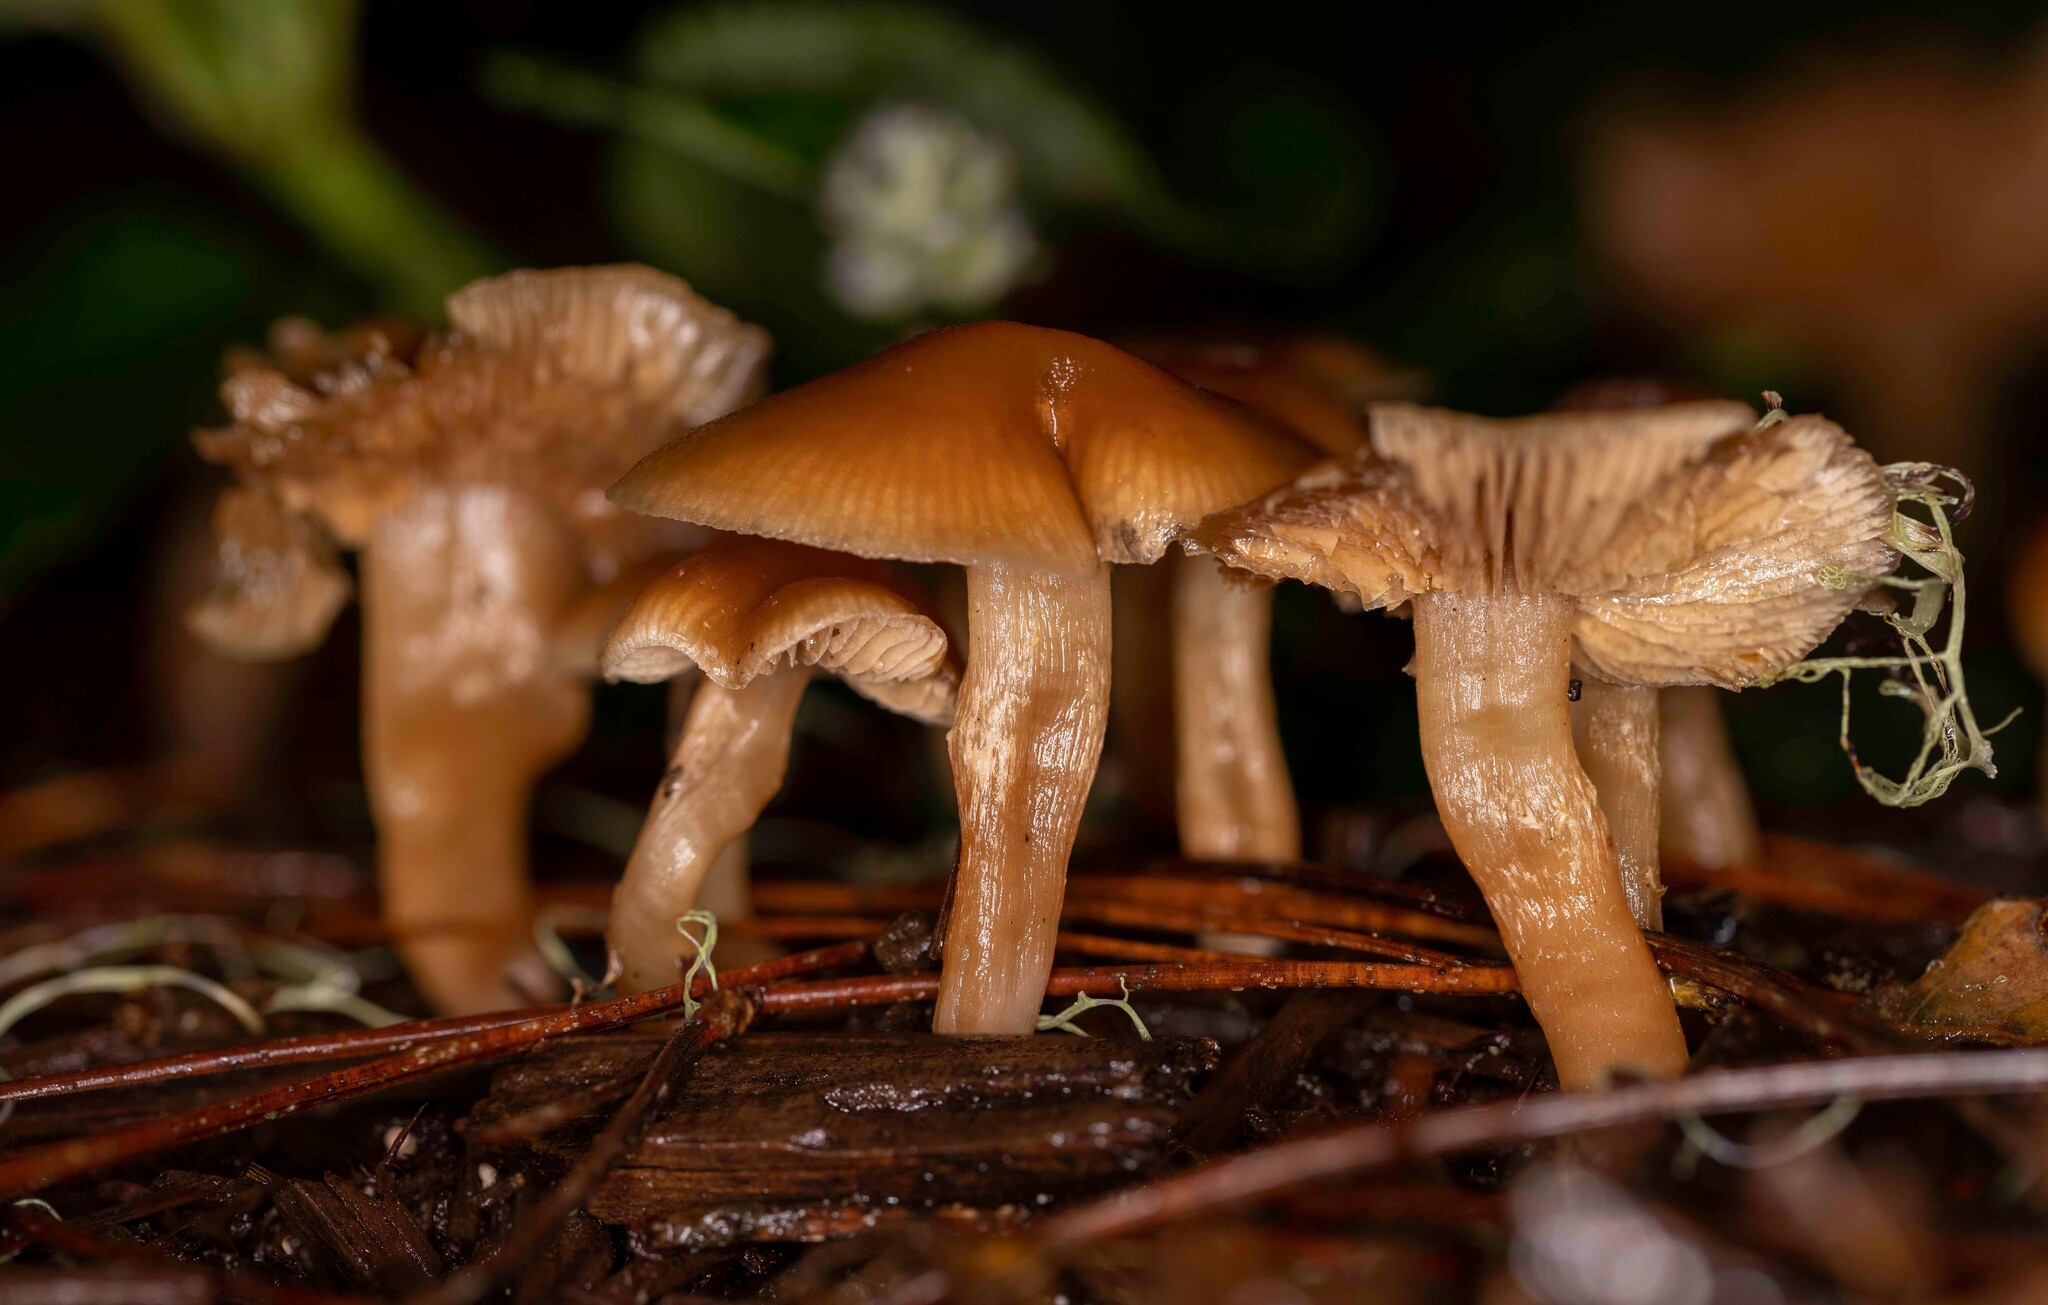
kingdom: Fungi
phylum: Basidiomycota
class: Agaricomycetes
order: Agaricales
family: Tubariaceae
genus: Tubaria
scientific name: Tubaria furfuracea
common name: Scurfy twiglet
